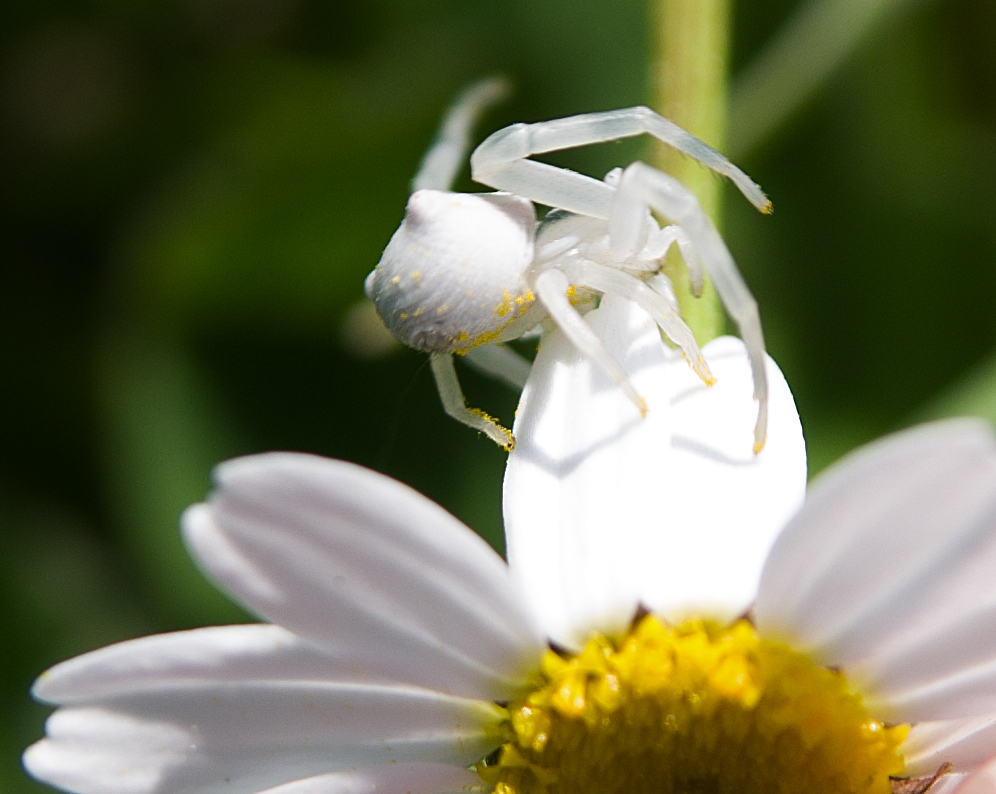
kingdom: Animalia
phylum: Arthropoda
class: Arachnida
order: Araneae
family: Thomisidae
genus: Thomisus
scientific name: Thomisus onustus
